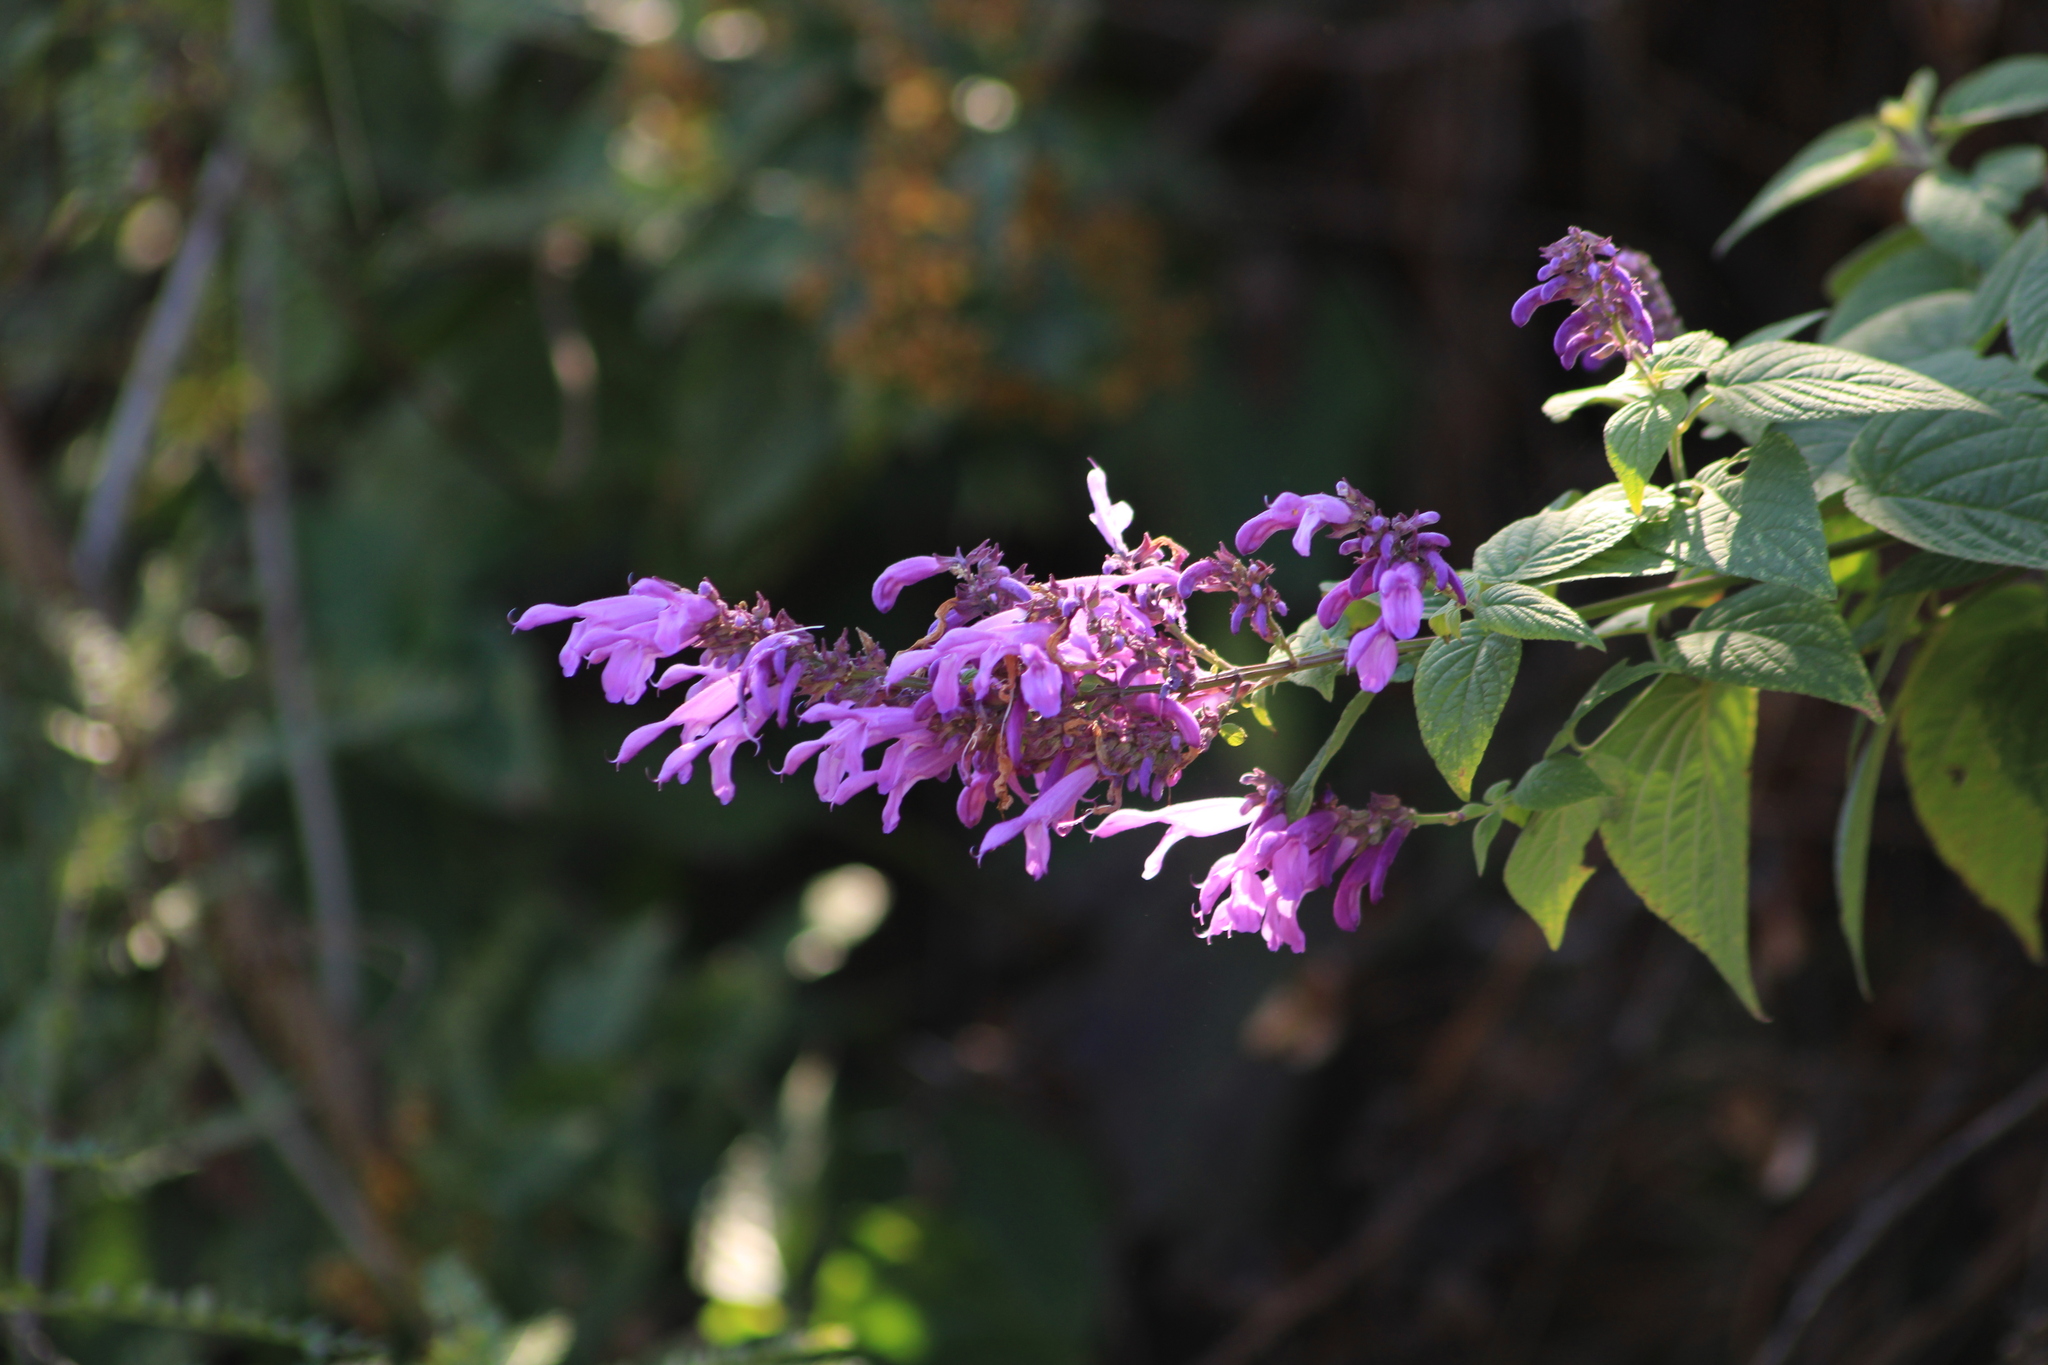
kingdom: Plantae
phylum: Tracheophyta
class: Magnoliopsida
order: Lamiales
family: Lamiaceae
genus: Salvia
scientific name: Salvia purpurea
